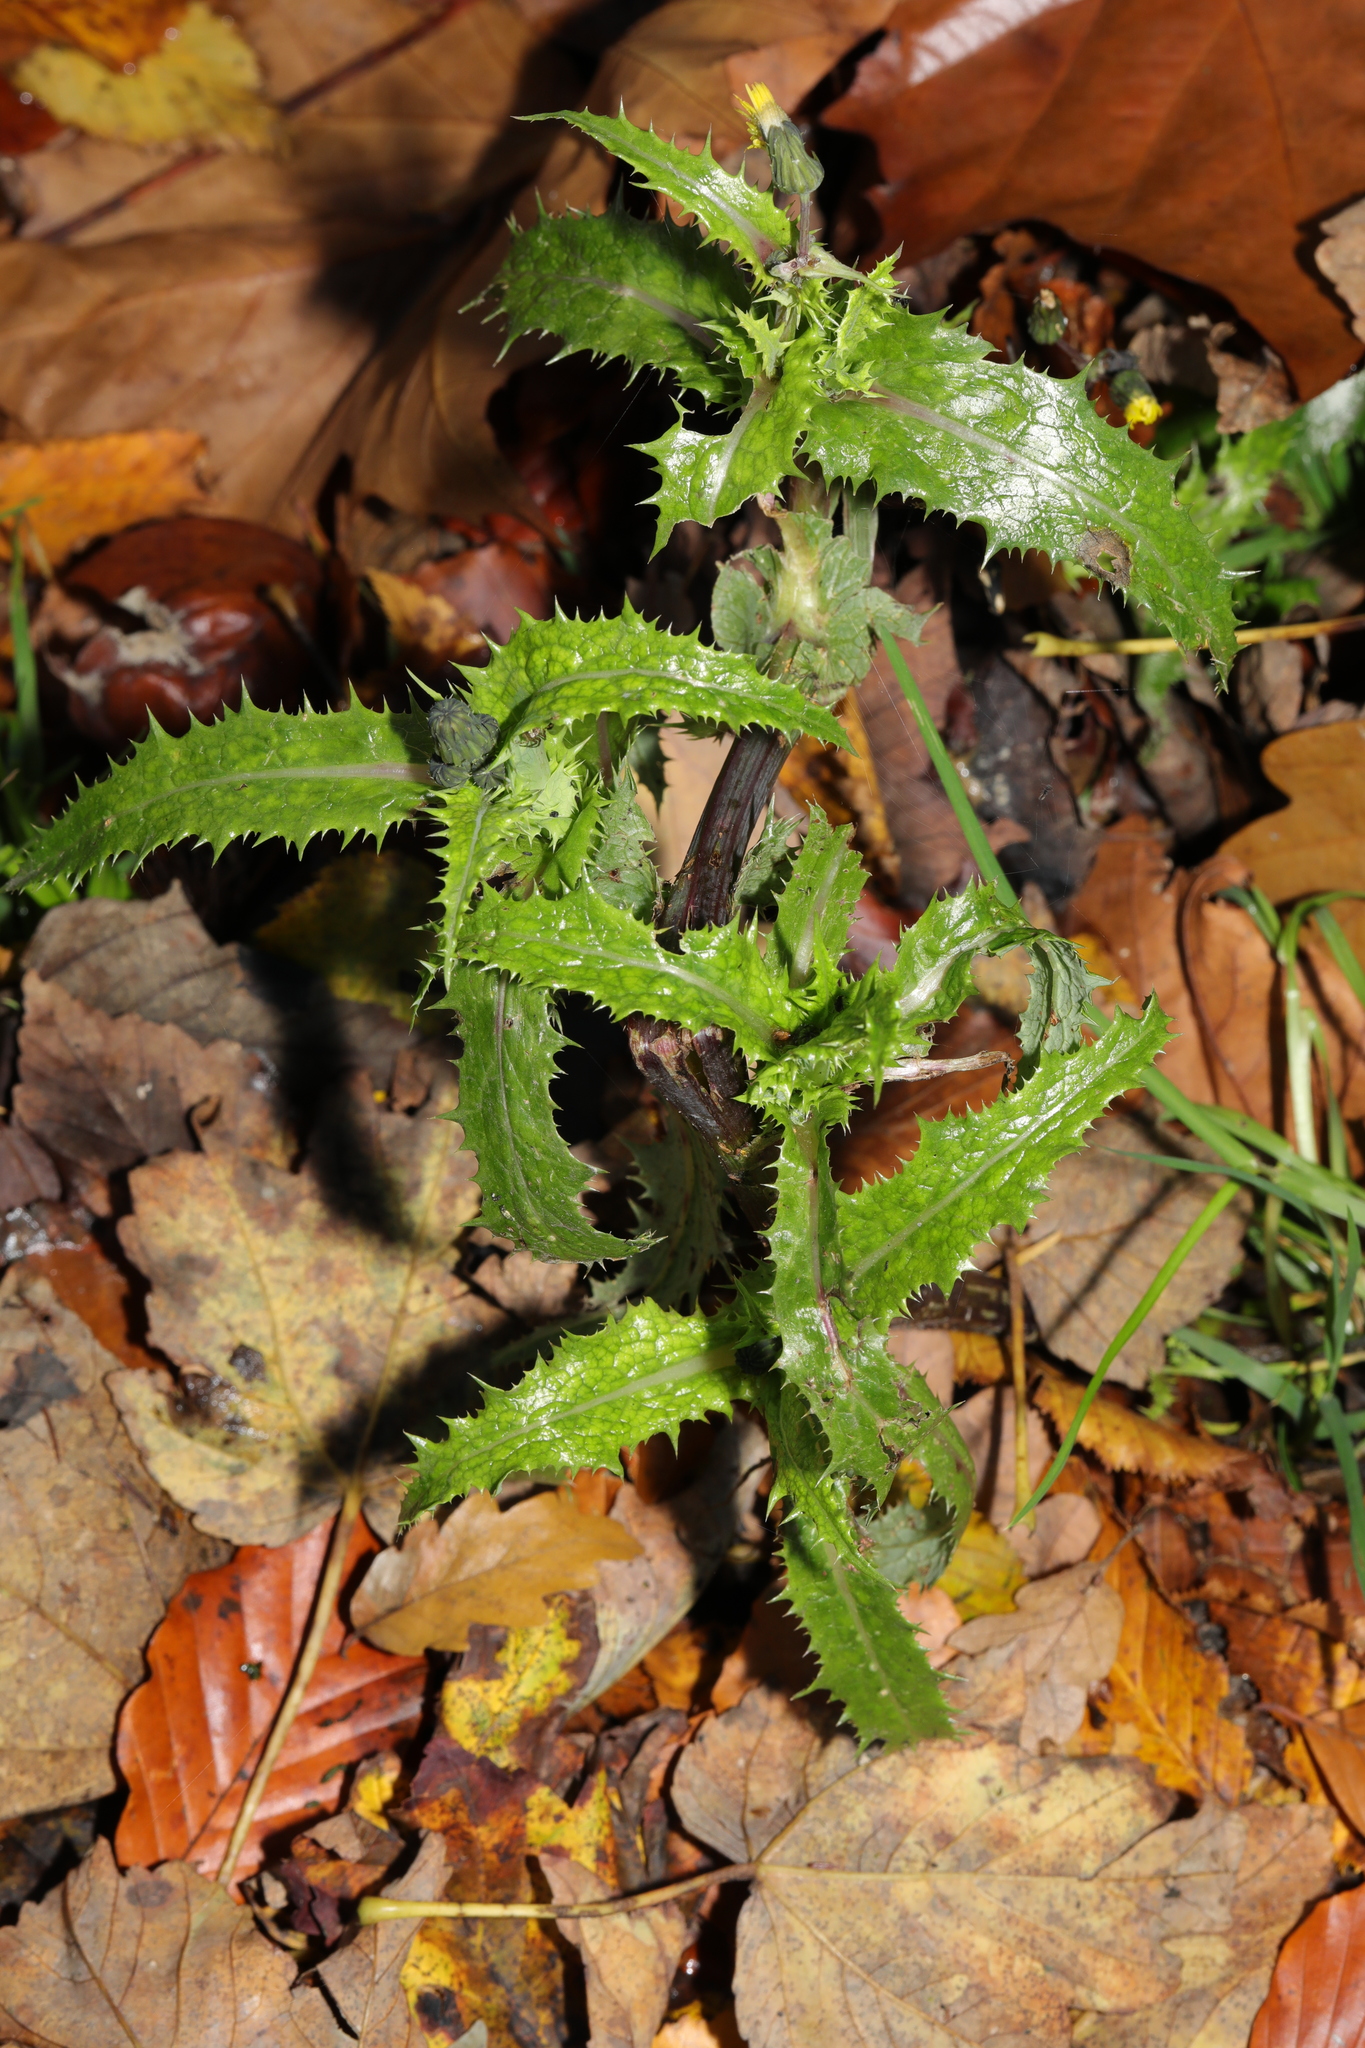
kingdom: Plantae
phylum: Tracheophyta
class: Magnoliopsida
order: Asterales
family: Asteraceae
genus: Sonchus
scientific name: Sonchus asper
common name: Prickly sow-thistle
